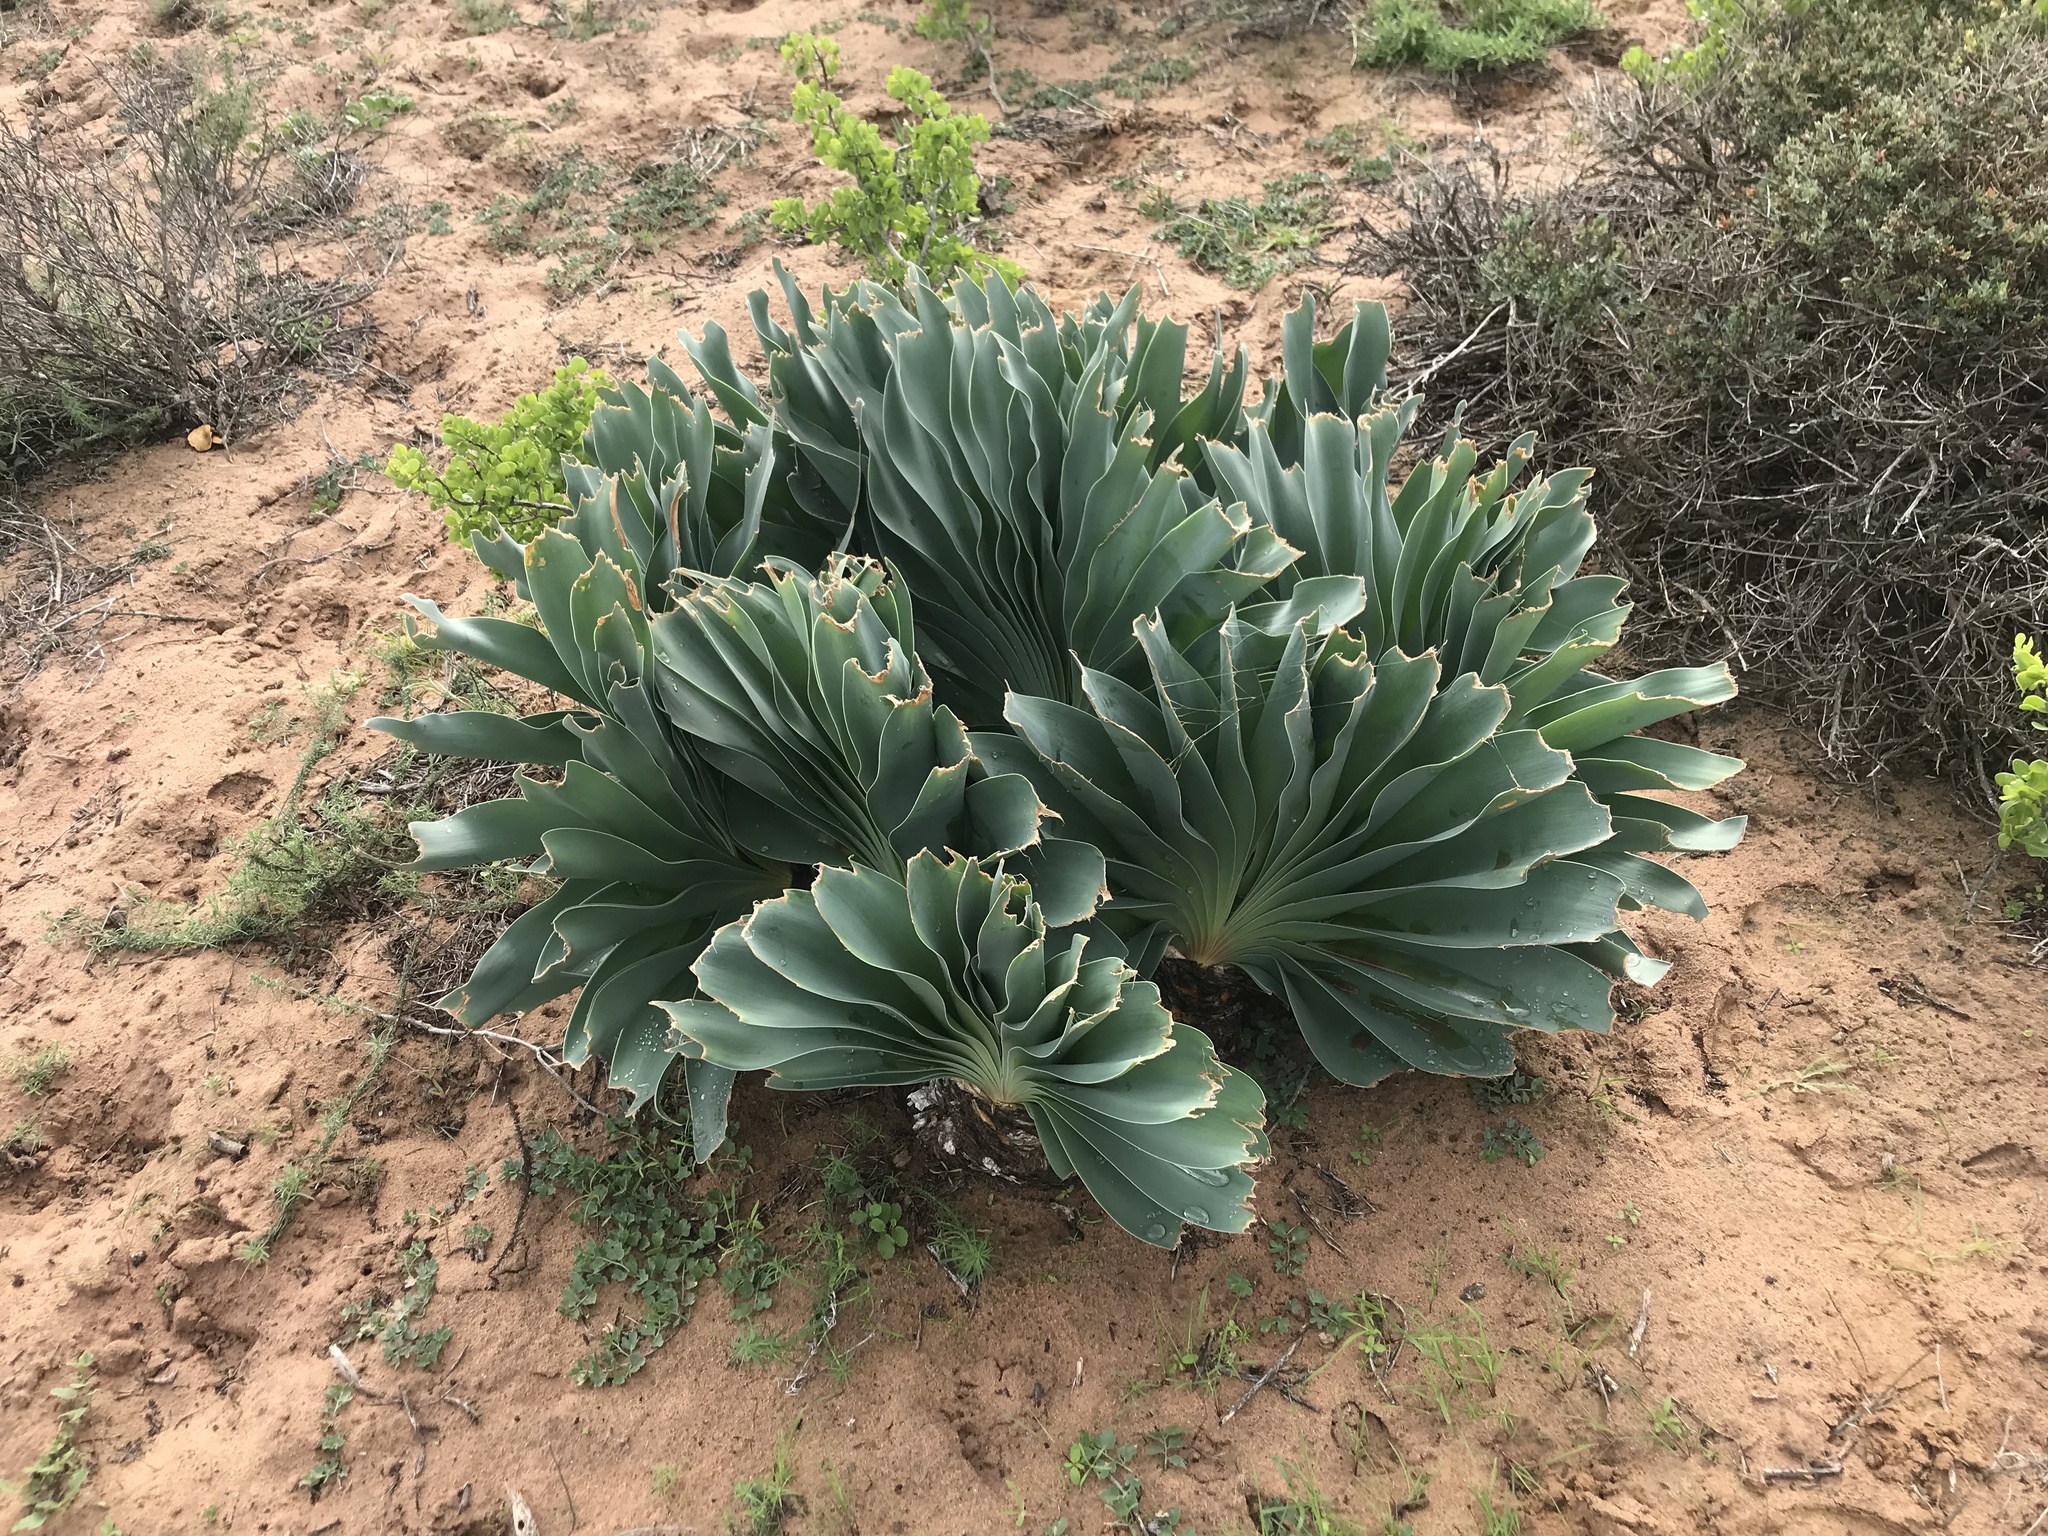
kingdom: Plantae
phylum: Tracheophyta
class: Liliopsida
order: Asparagales
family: Amaryllidaceae
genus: Boophone
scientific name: Boophone haemanthoides
